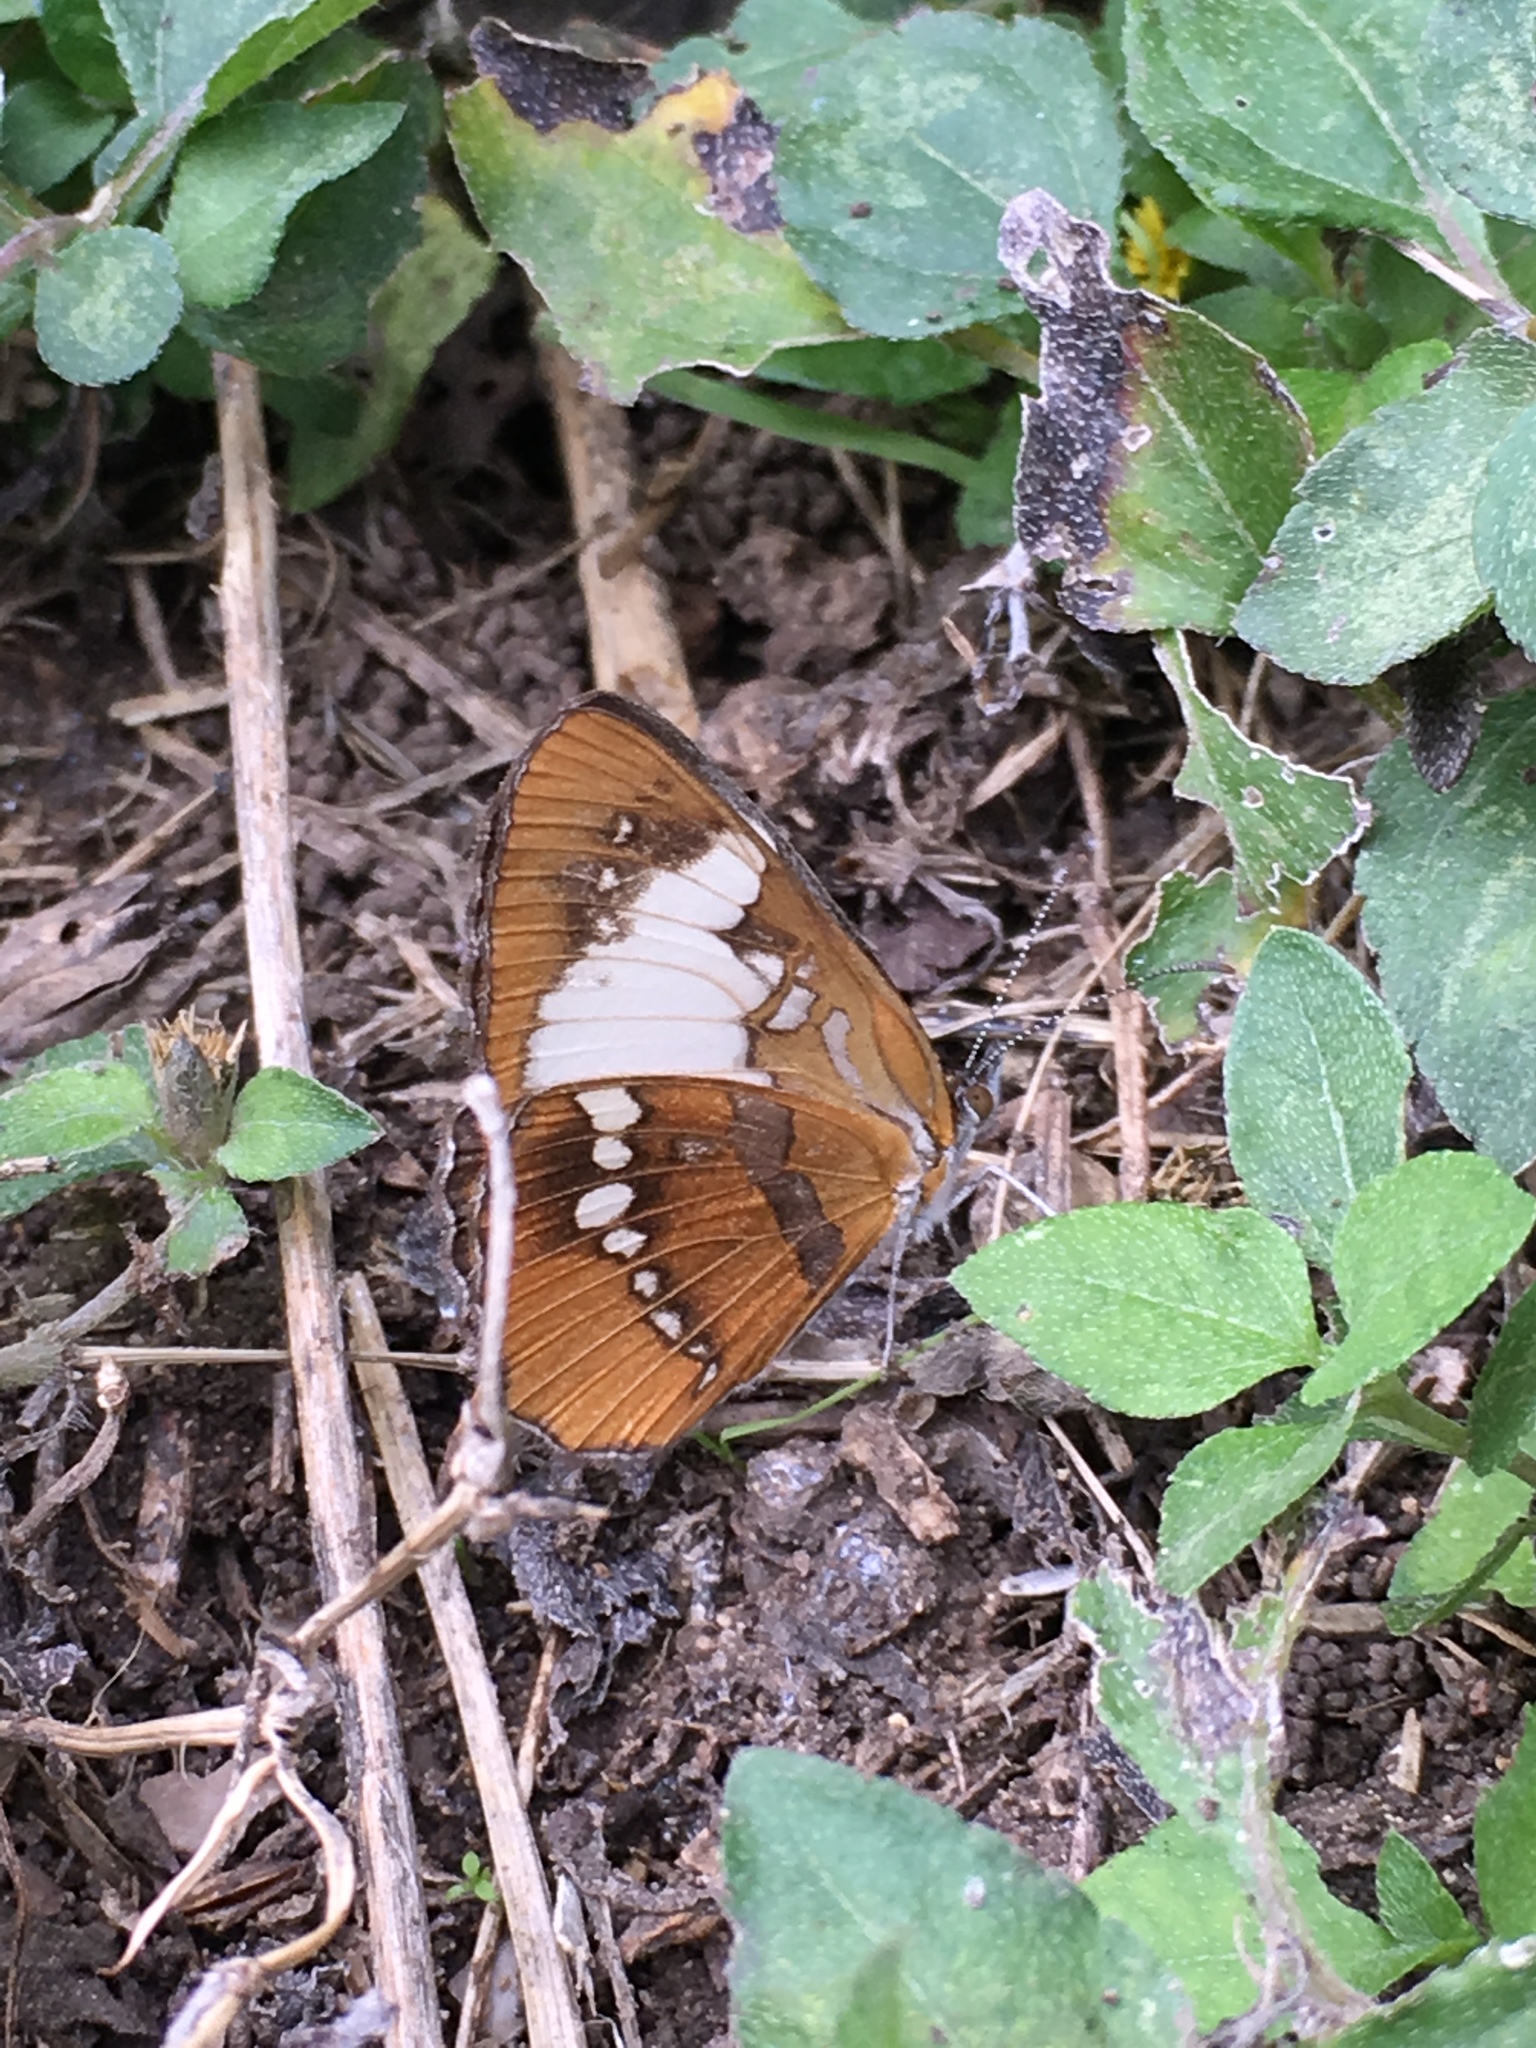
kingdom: Animalia
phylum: Arthropoda
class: Insecta
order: Lepidoptera
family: Nymphalidae
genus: Mestra
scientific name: Mestra amymone
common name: Common mestra
